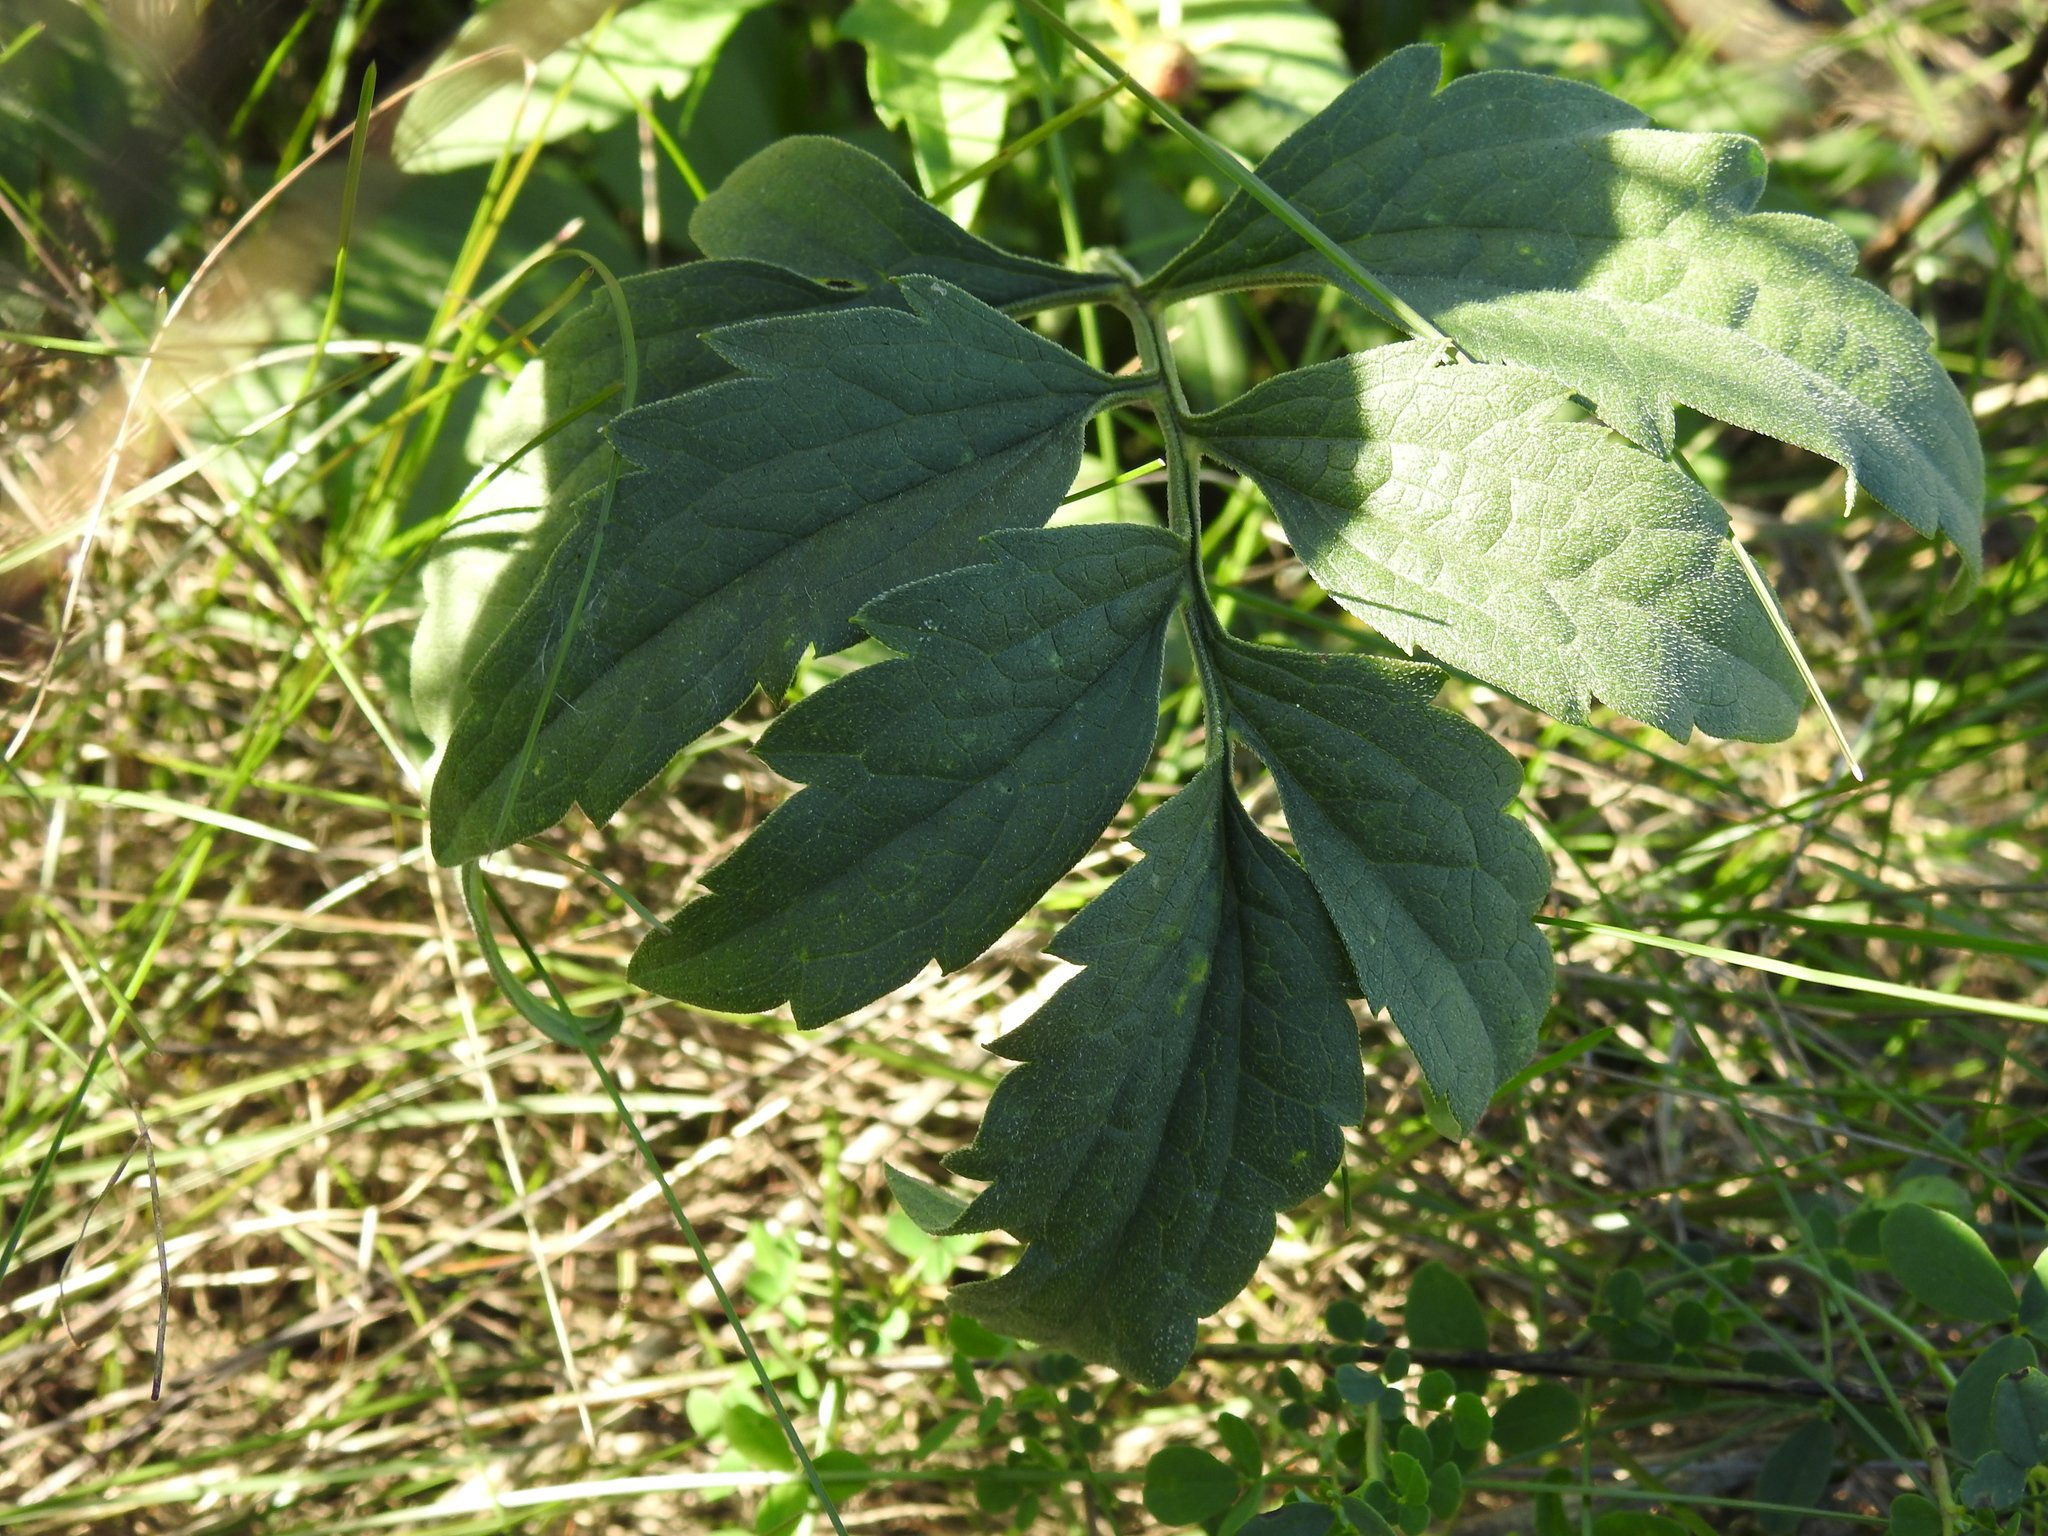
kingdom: Plantae
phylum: Tracheophyta
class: Magnoliopsida
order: Asterales
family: Asteraceae
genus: Ratibida
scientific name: Ratibida pinnata
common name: Drooping prairie-coneflower
